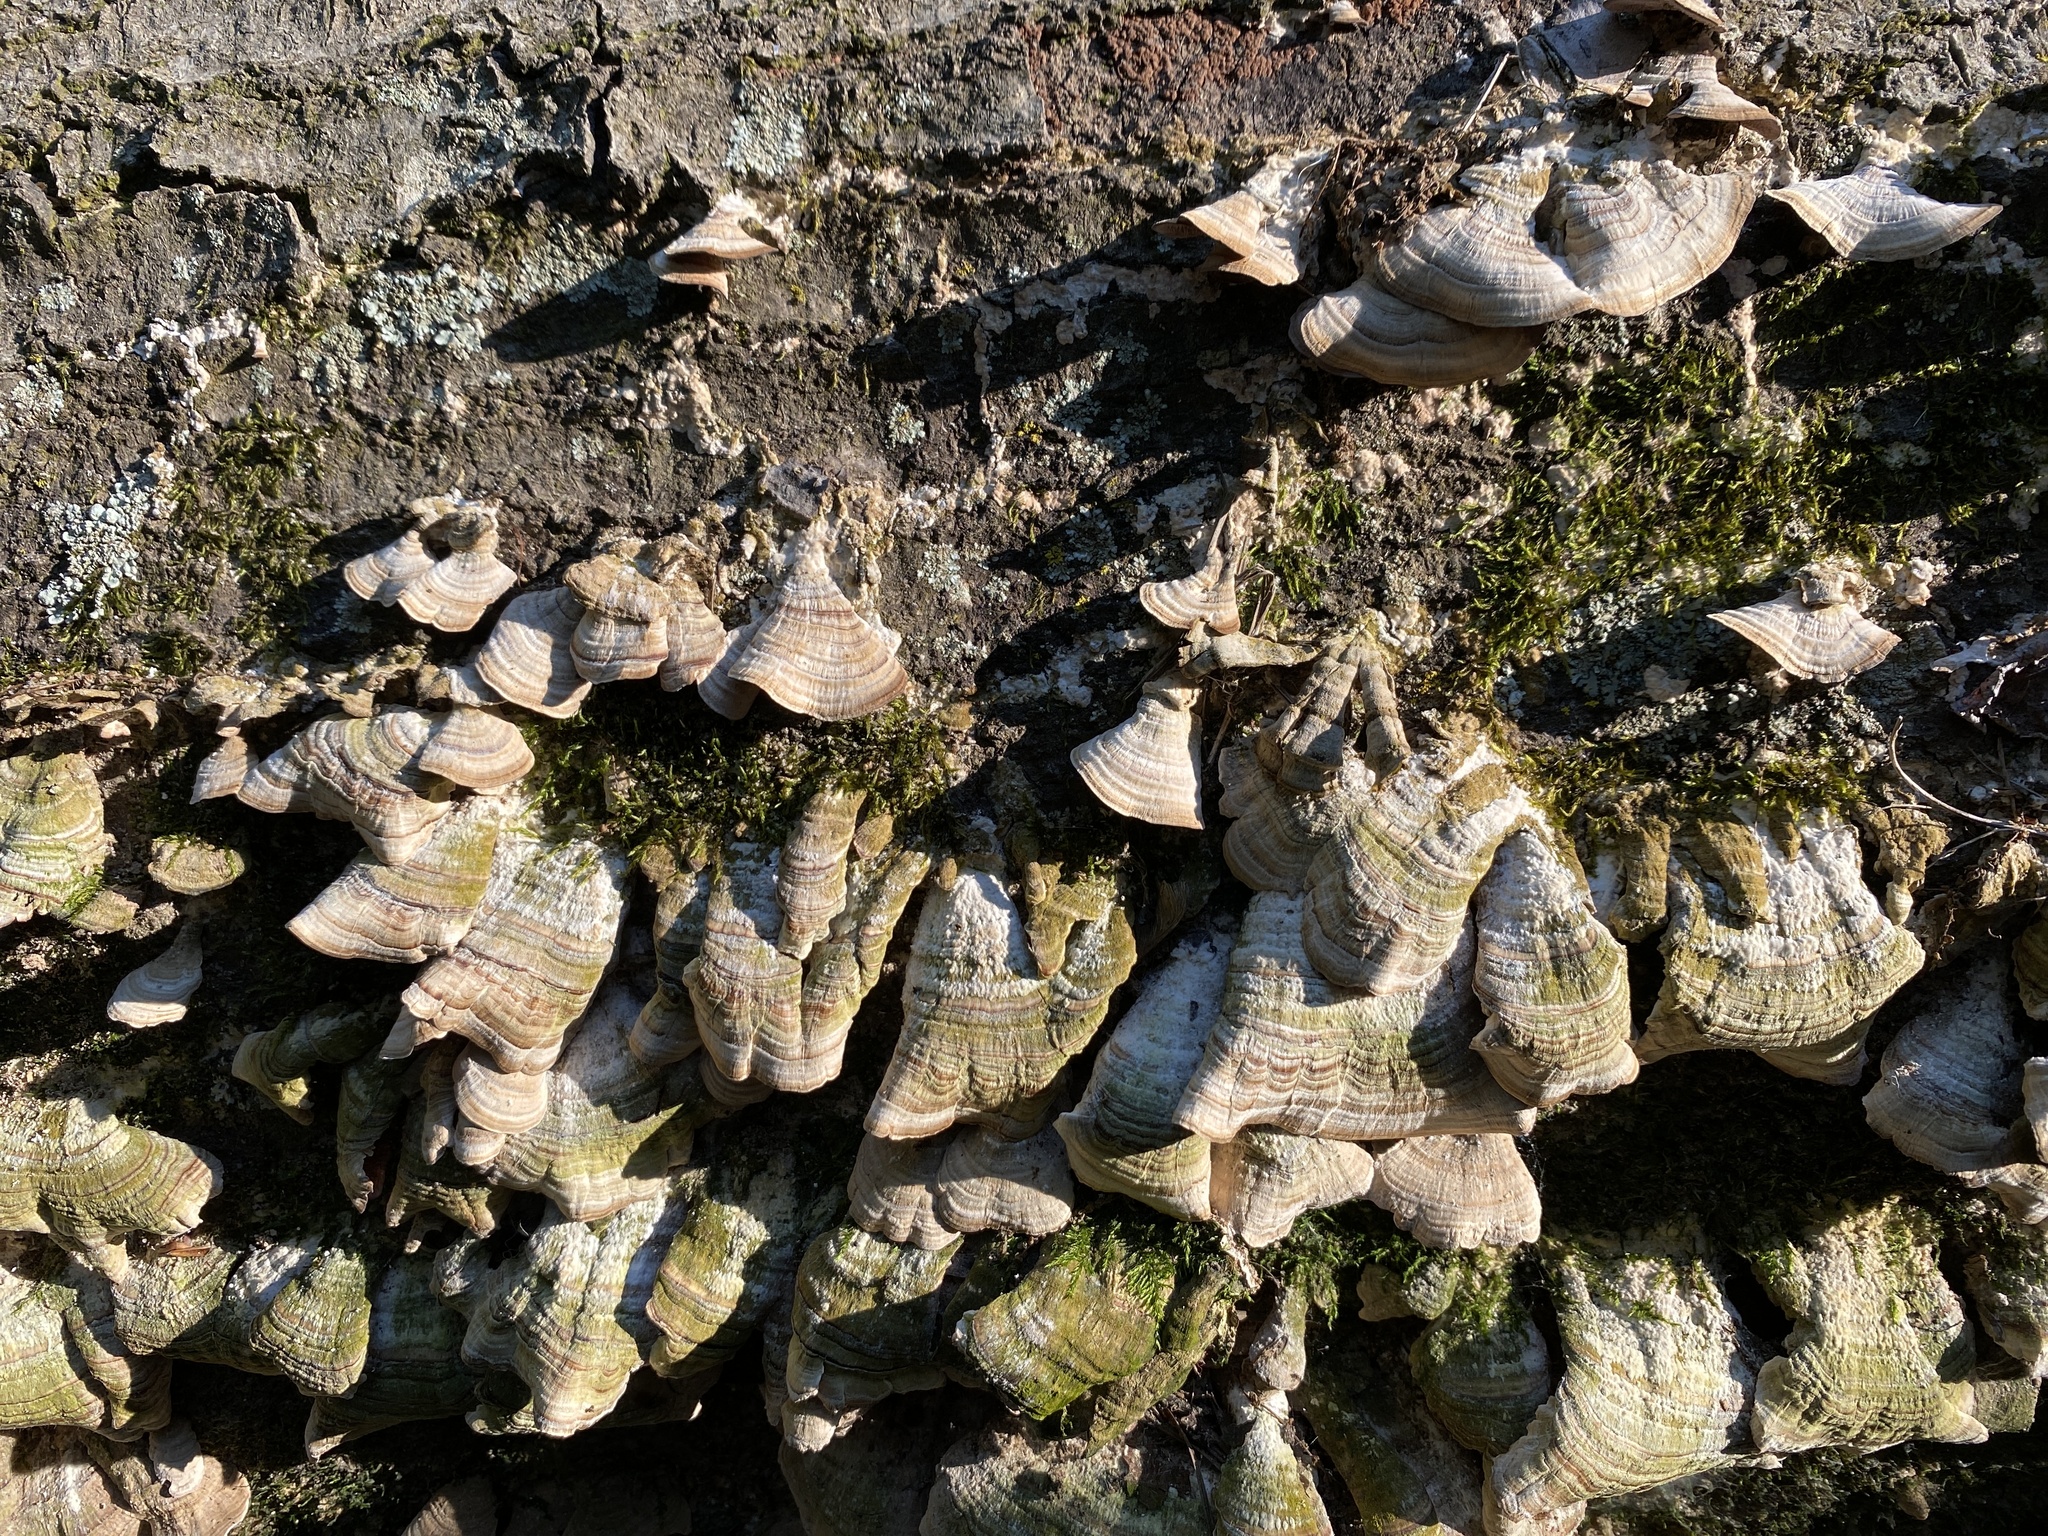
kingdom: Fungi
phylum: Basidiomycota
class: Agaricomycetes
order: Hymenochaetales
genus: Trichaptum
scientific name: Trichaptum biforme
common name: Violet-toothed polypore
